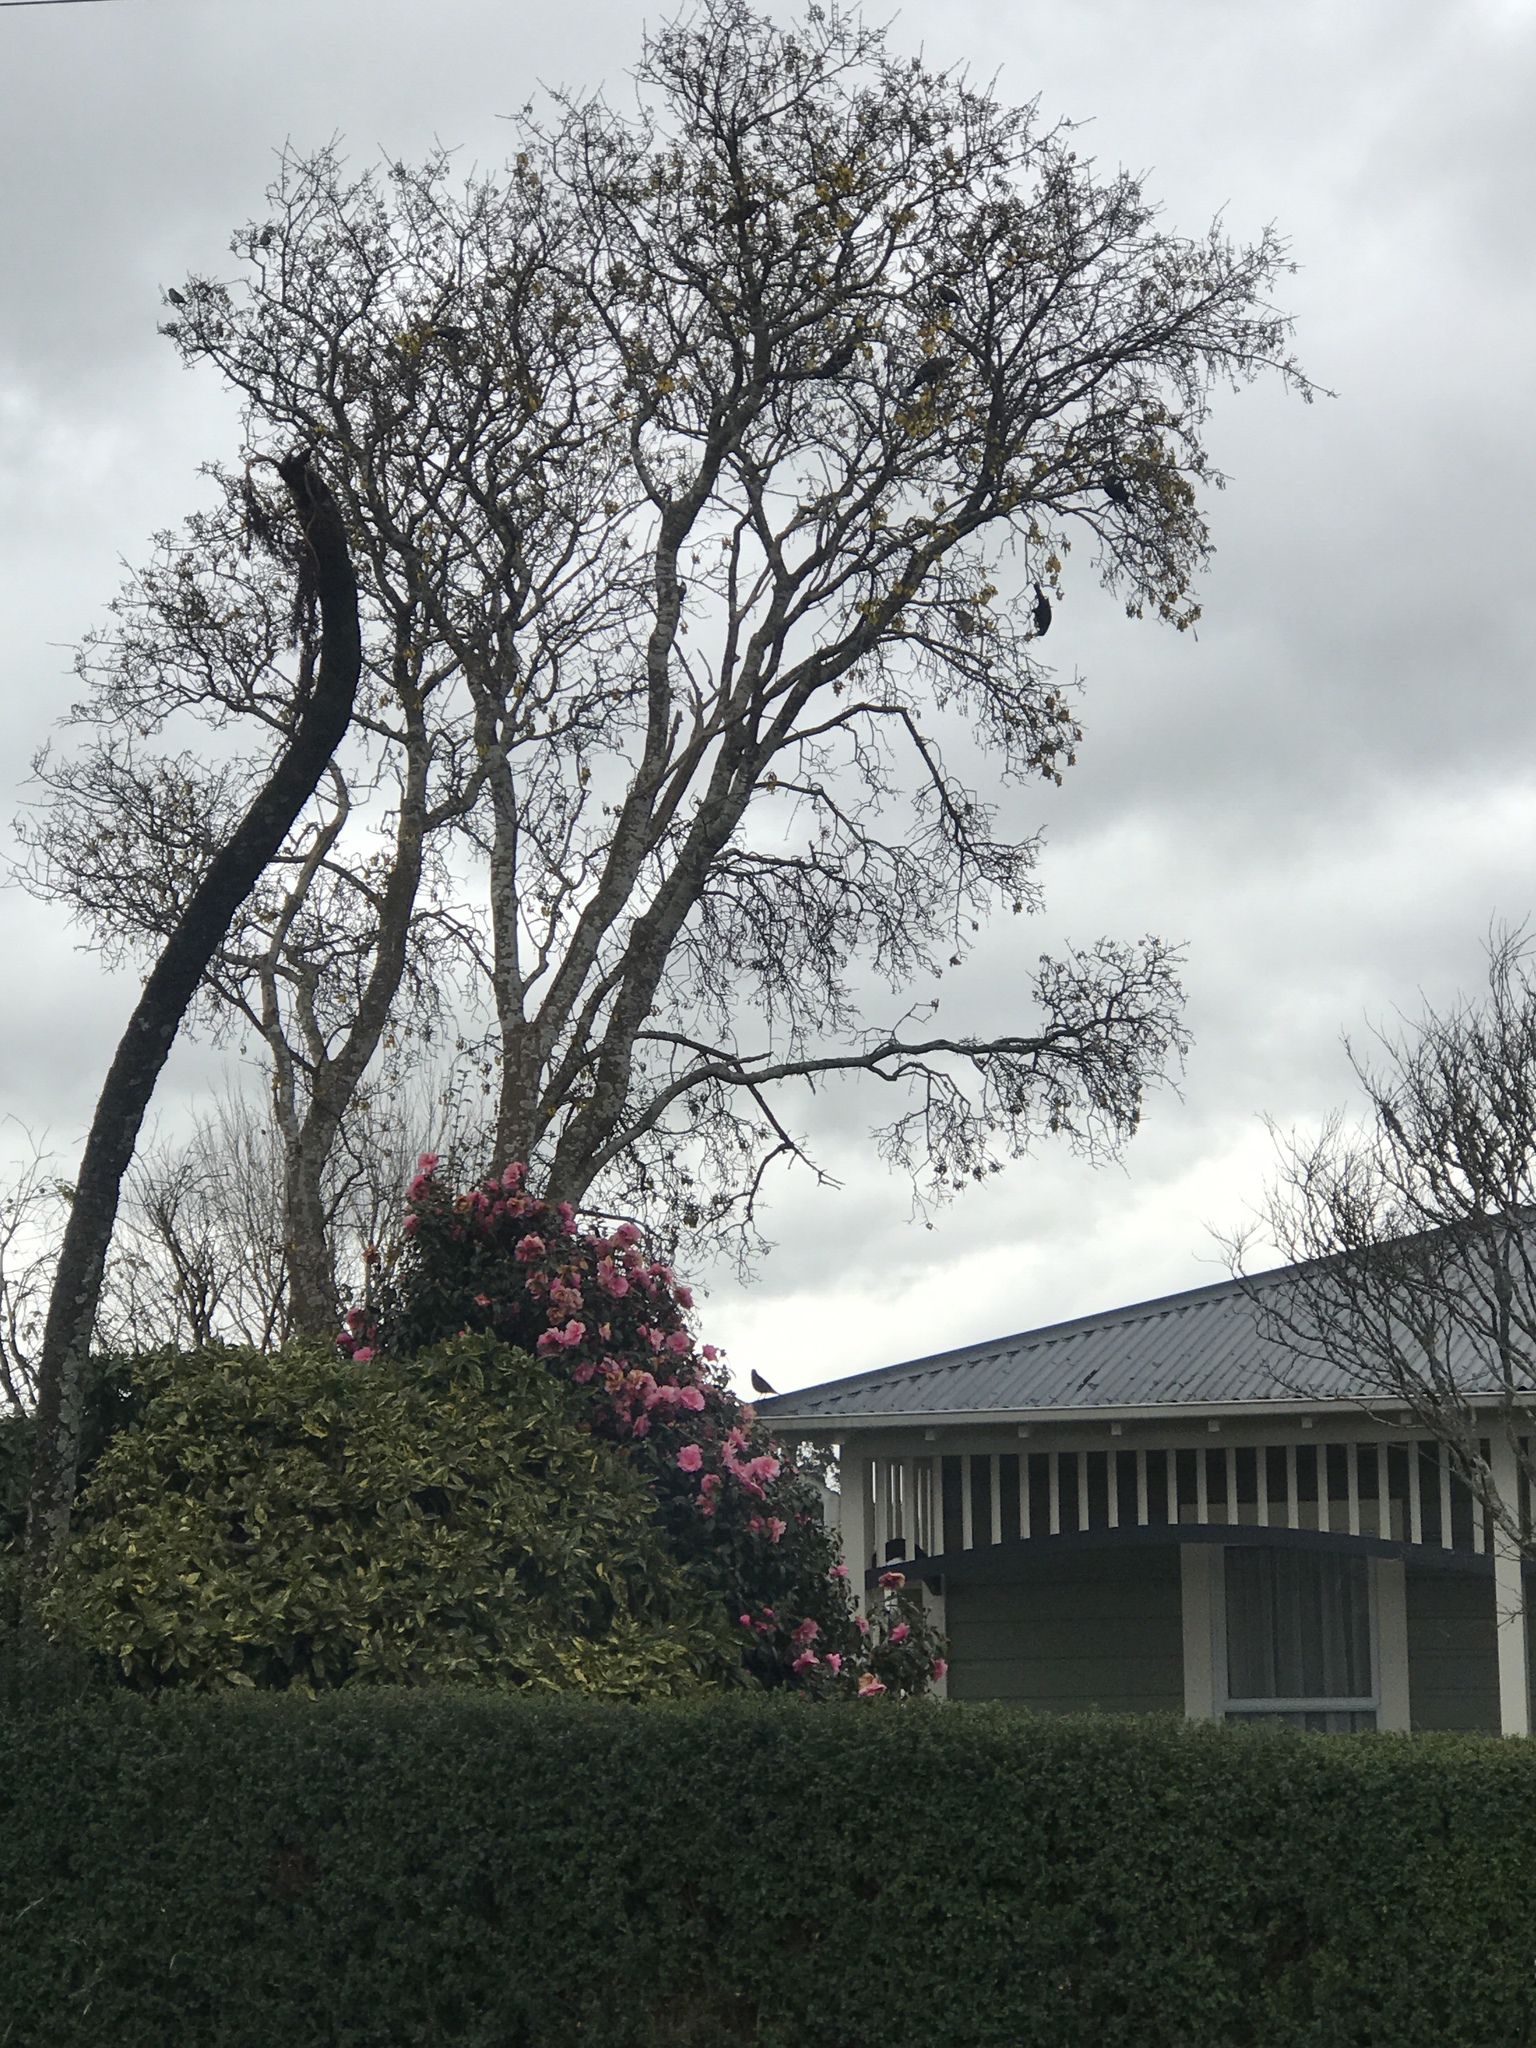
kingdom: Animalia
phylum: Chordata
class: Aves
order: Passeriformes
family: Meliphagidae
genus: Prosthemadera
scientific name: Prosthemadera novaeseelandiae
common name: Tui
